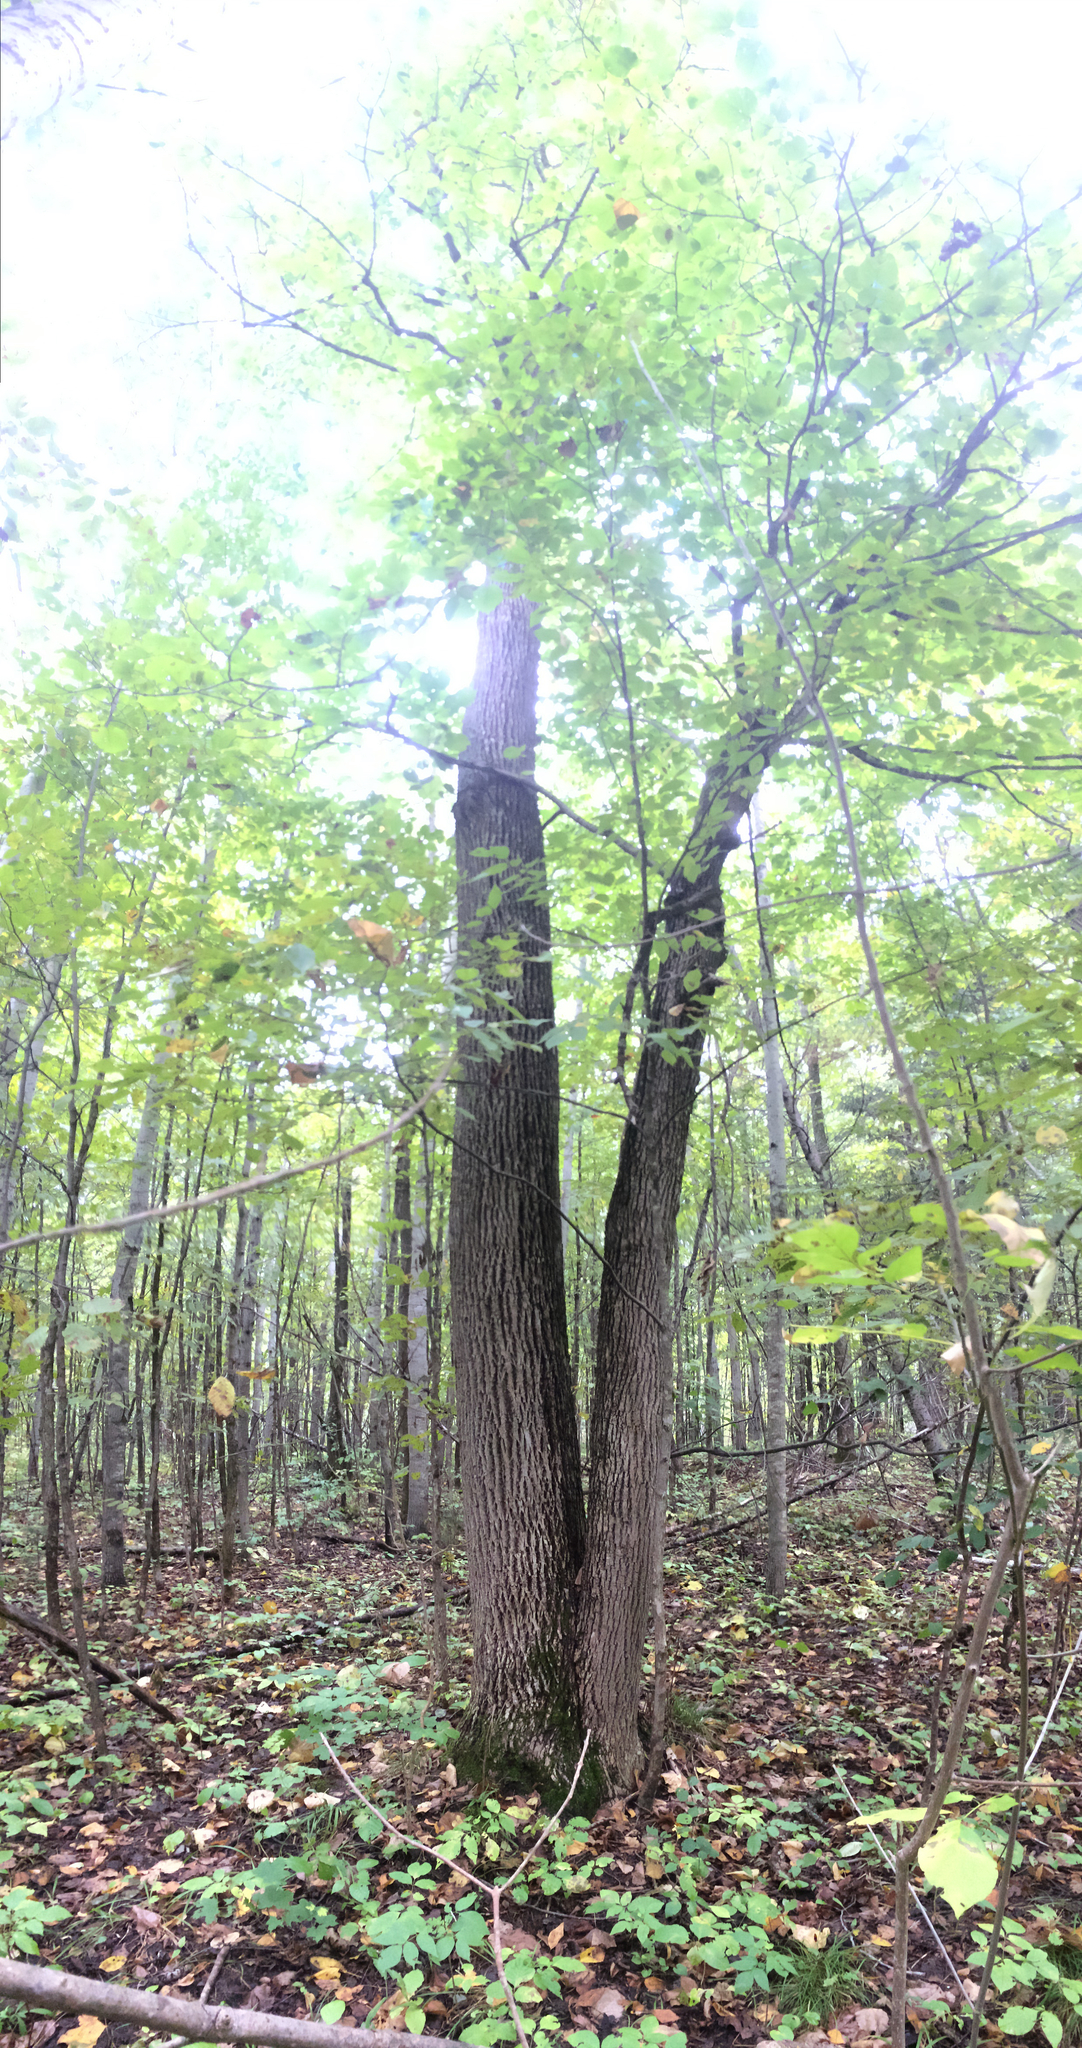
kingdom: Plantae
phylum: Tracheophyta
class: Magnoliopsida
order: Malvales
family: Malvaceae
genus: Tilia
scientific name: Tilia americana
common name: Basswood
